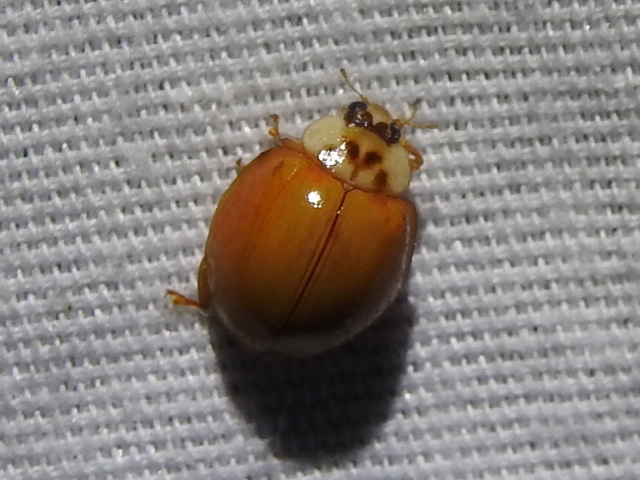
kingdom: Animalia
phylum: Arthropoda
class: Insecta
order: Coleoptera
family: Coccinellidae
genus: Harmonia
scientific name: Harmonia axyridis
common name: Harlequin ladybird
